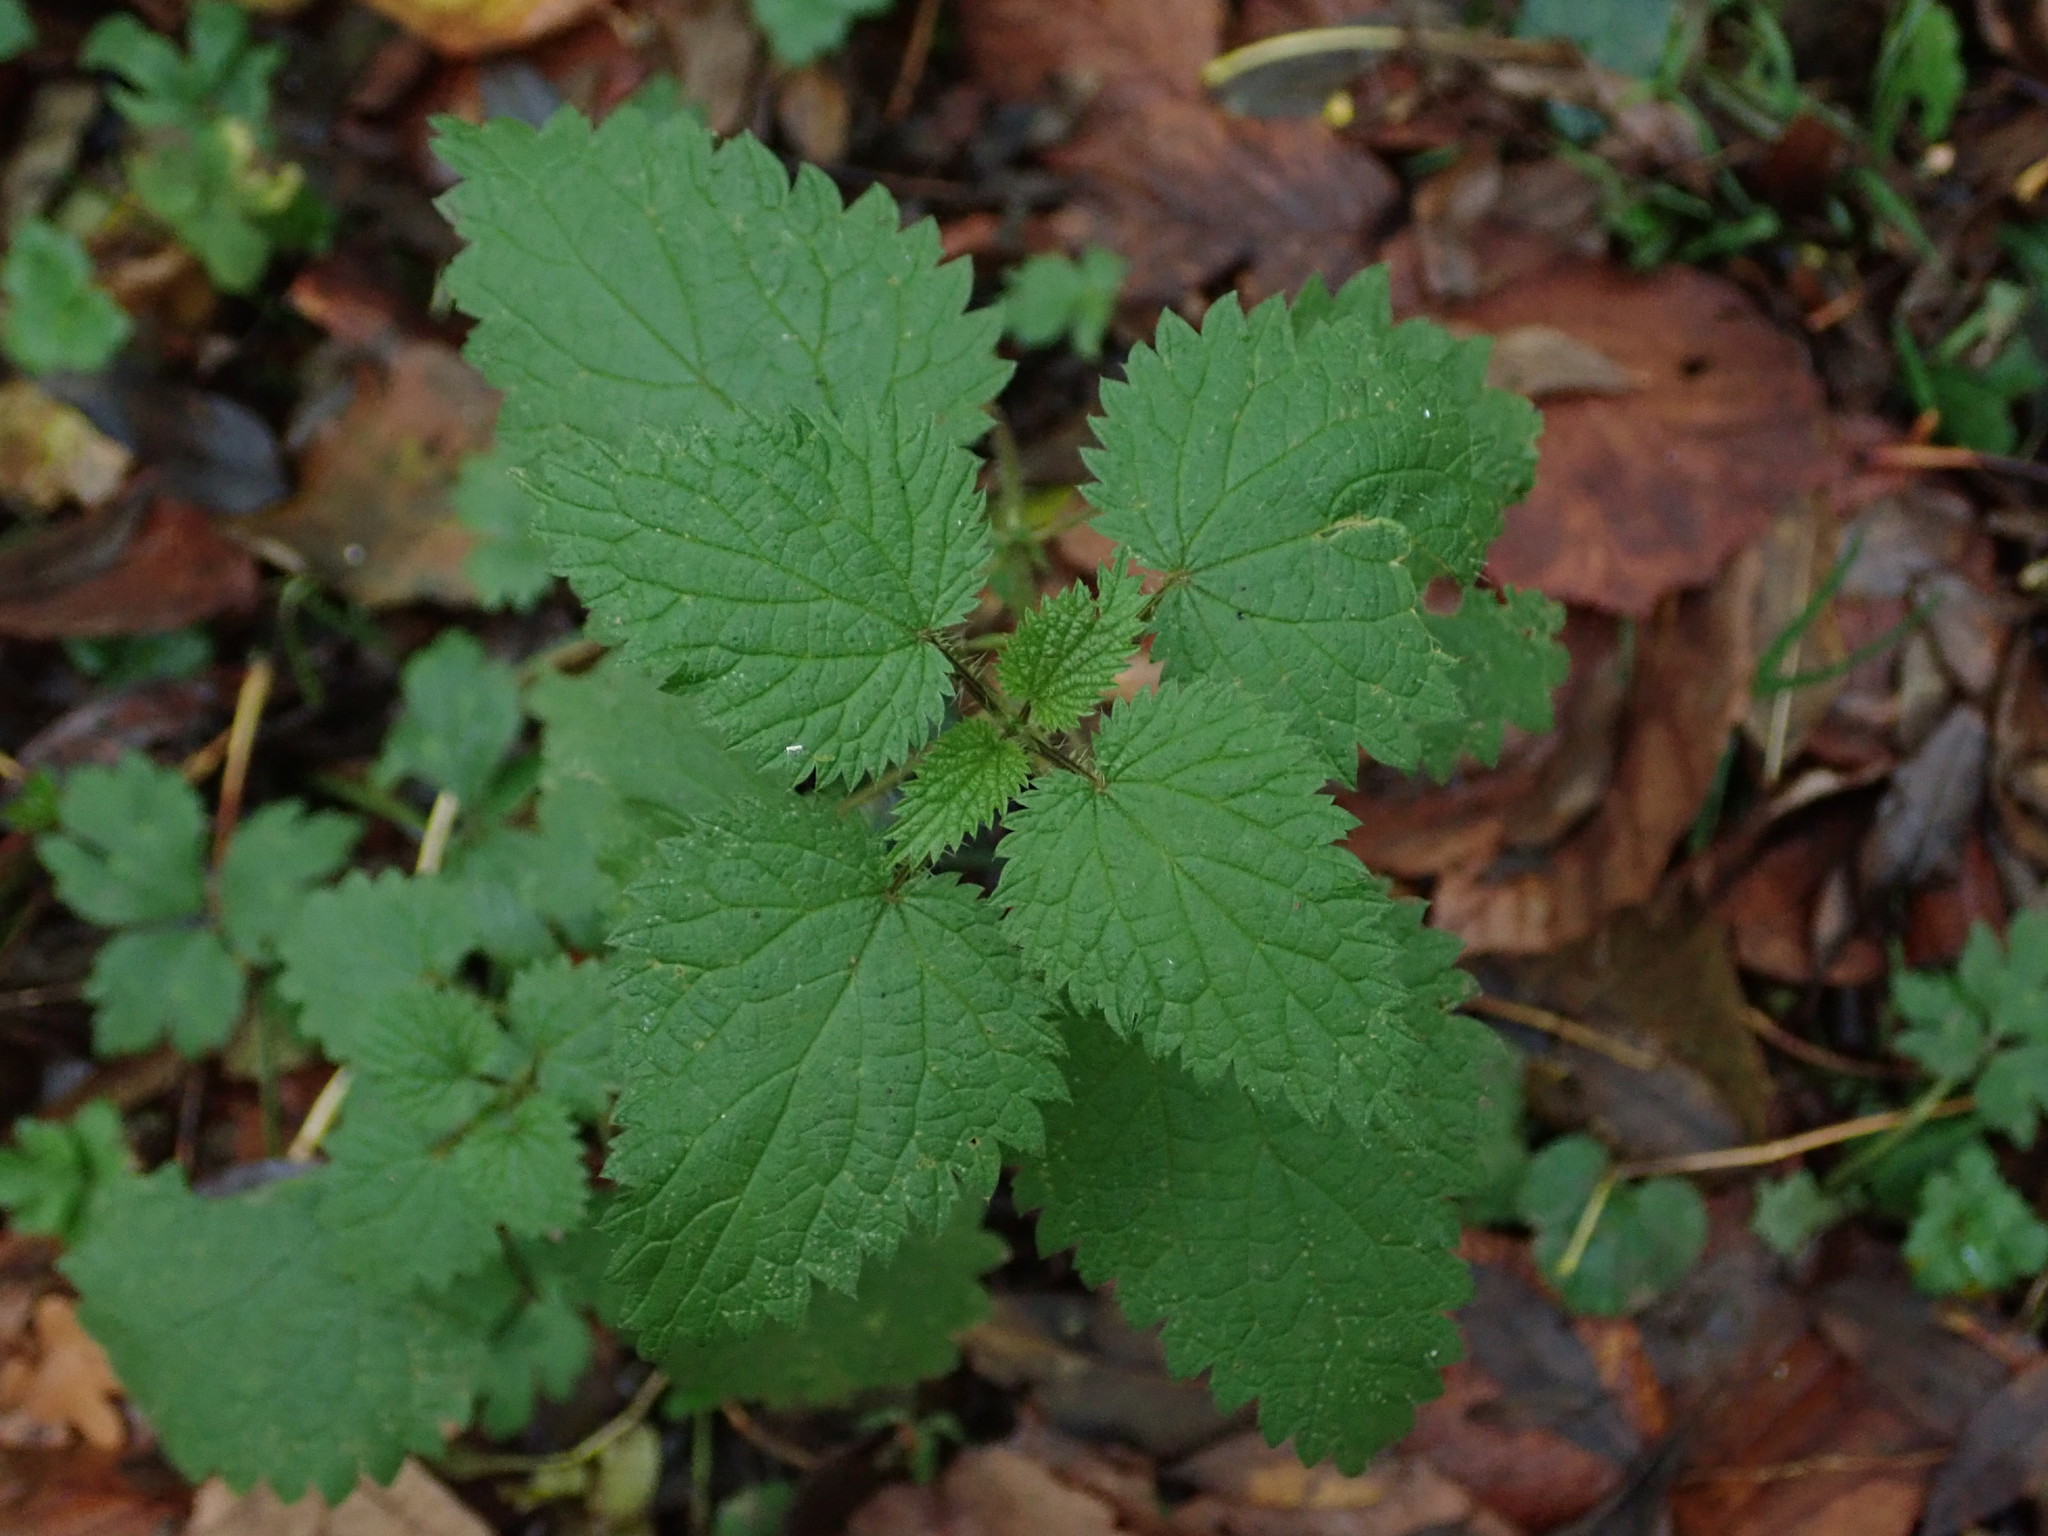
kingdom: Plantae
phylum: Tracheophyta
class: Magnoliopsida
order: Rosales
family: Urticaceae
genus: Urtica
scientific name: Urtica dioica
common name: Common nettle
